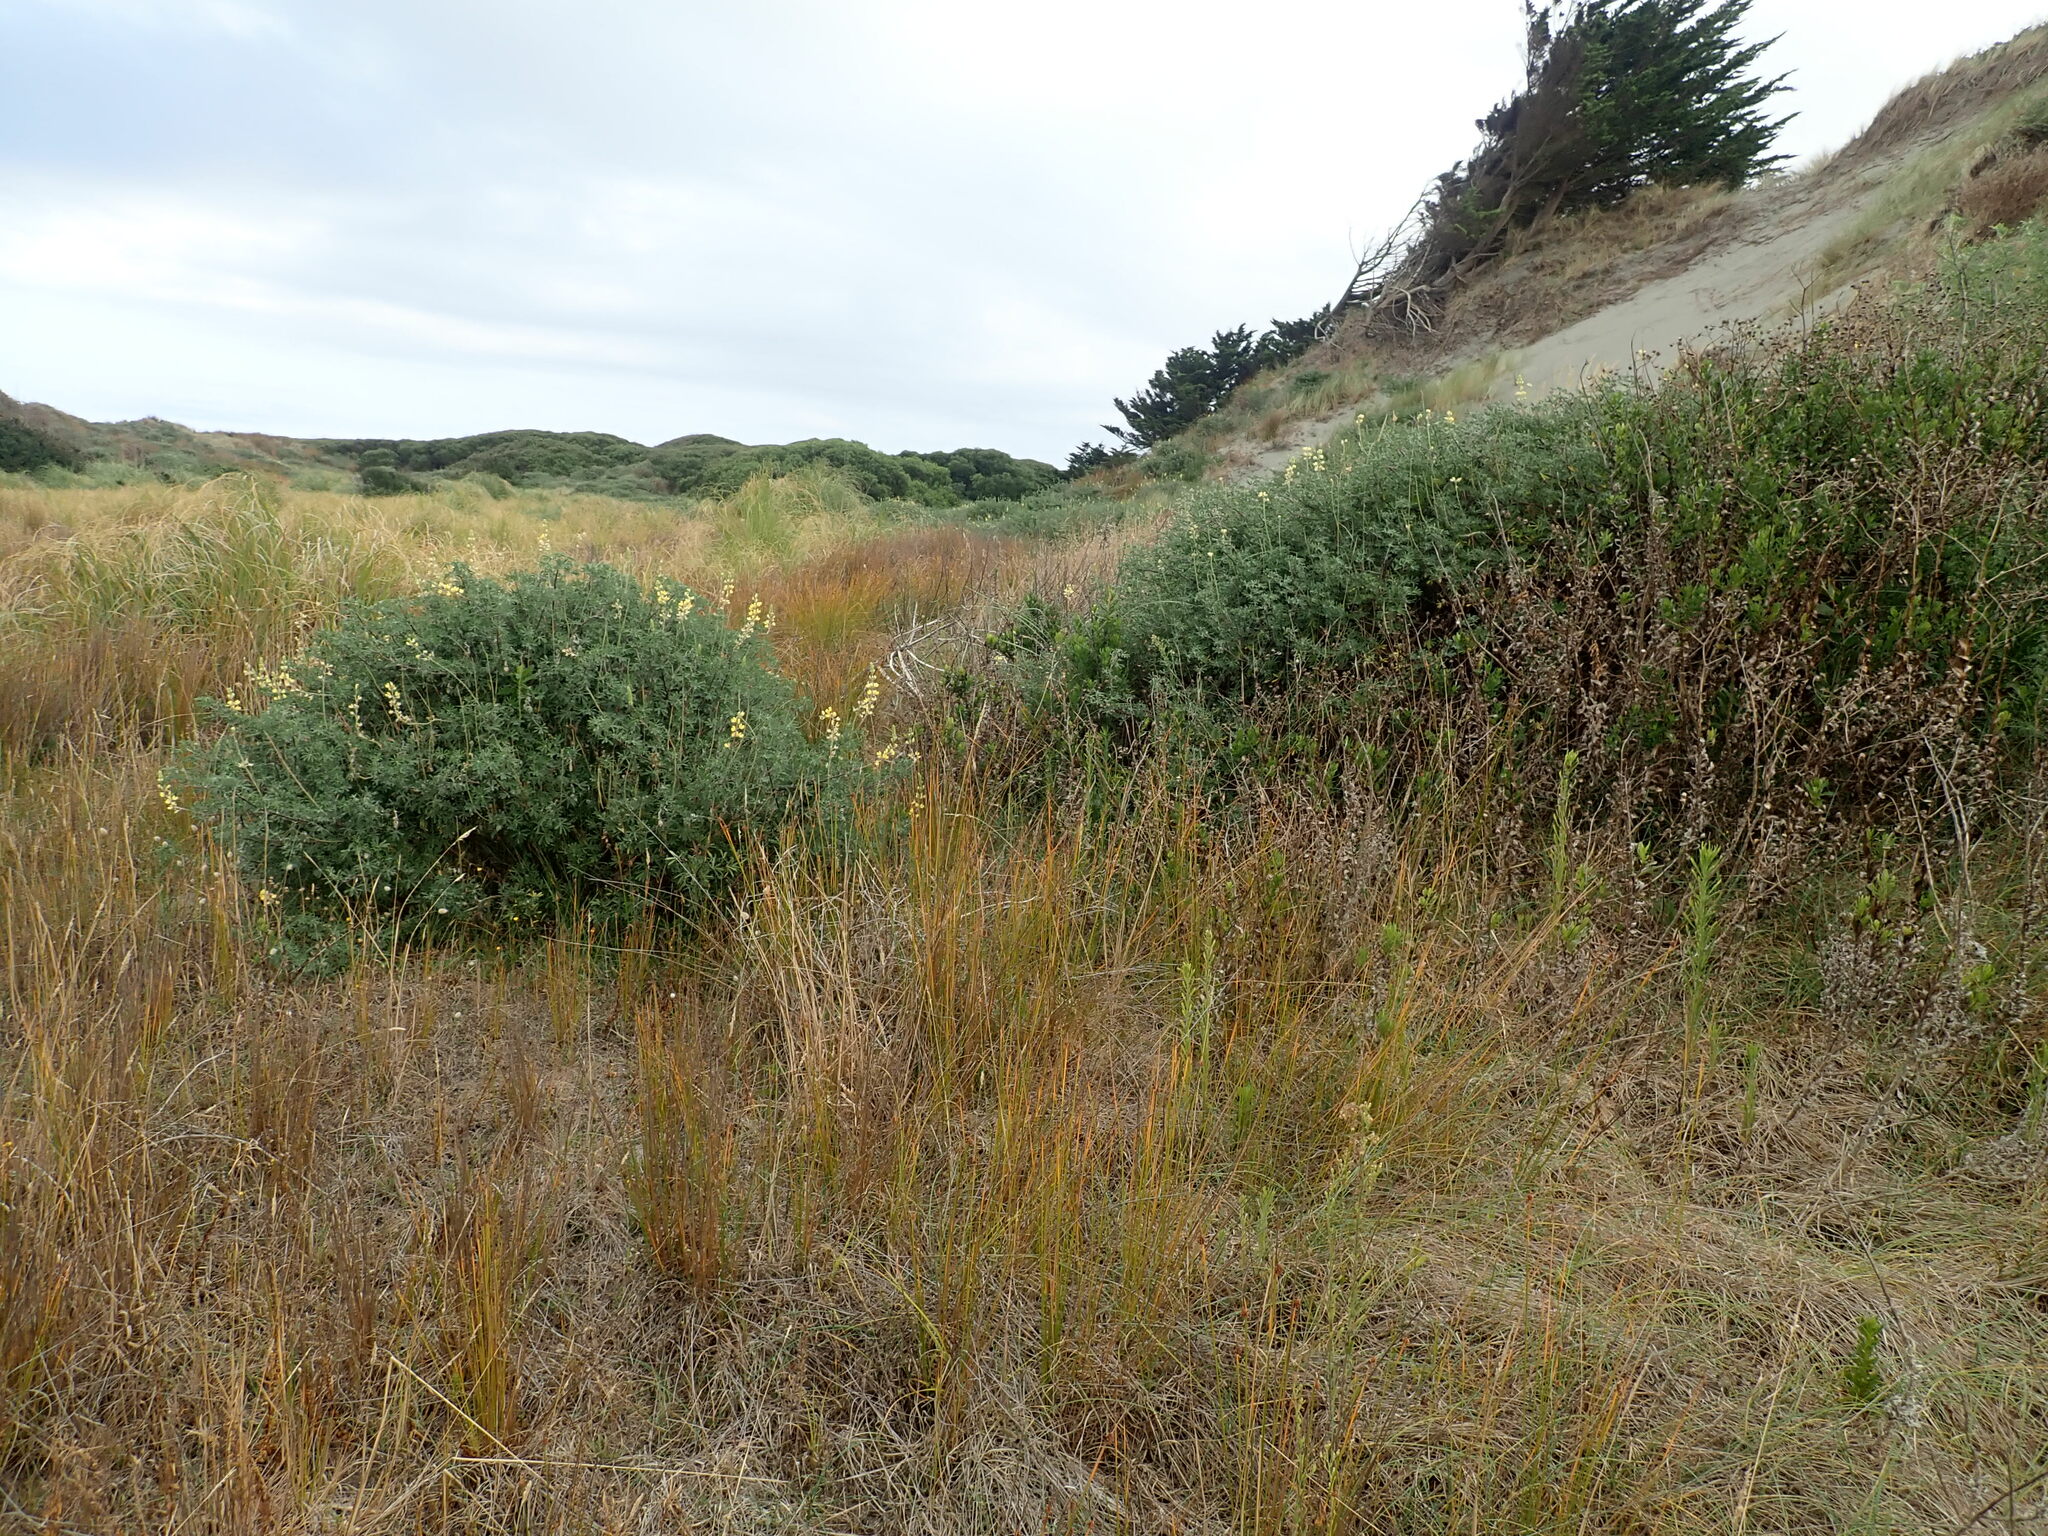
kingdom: Plantae
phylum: Tracheophyta
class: Magnoliopsida
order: Fabales
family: Fabaceae
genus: Lupinus
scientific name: Lupinus arboreus
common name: Yellow bush lupine
